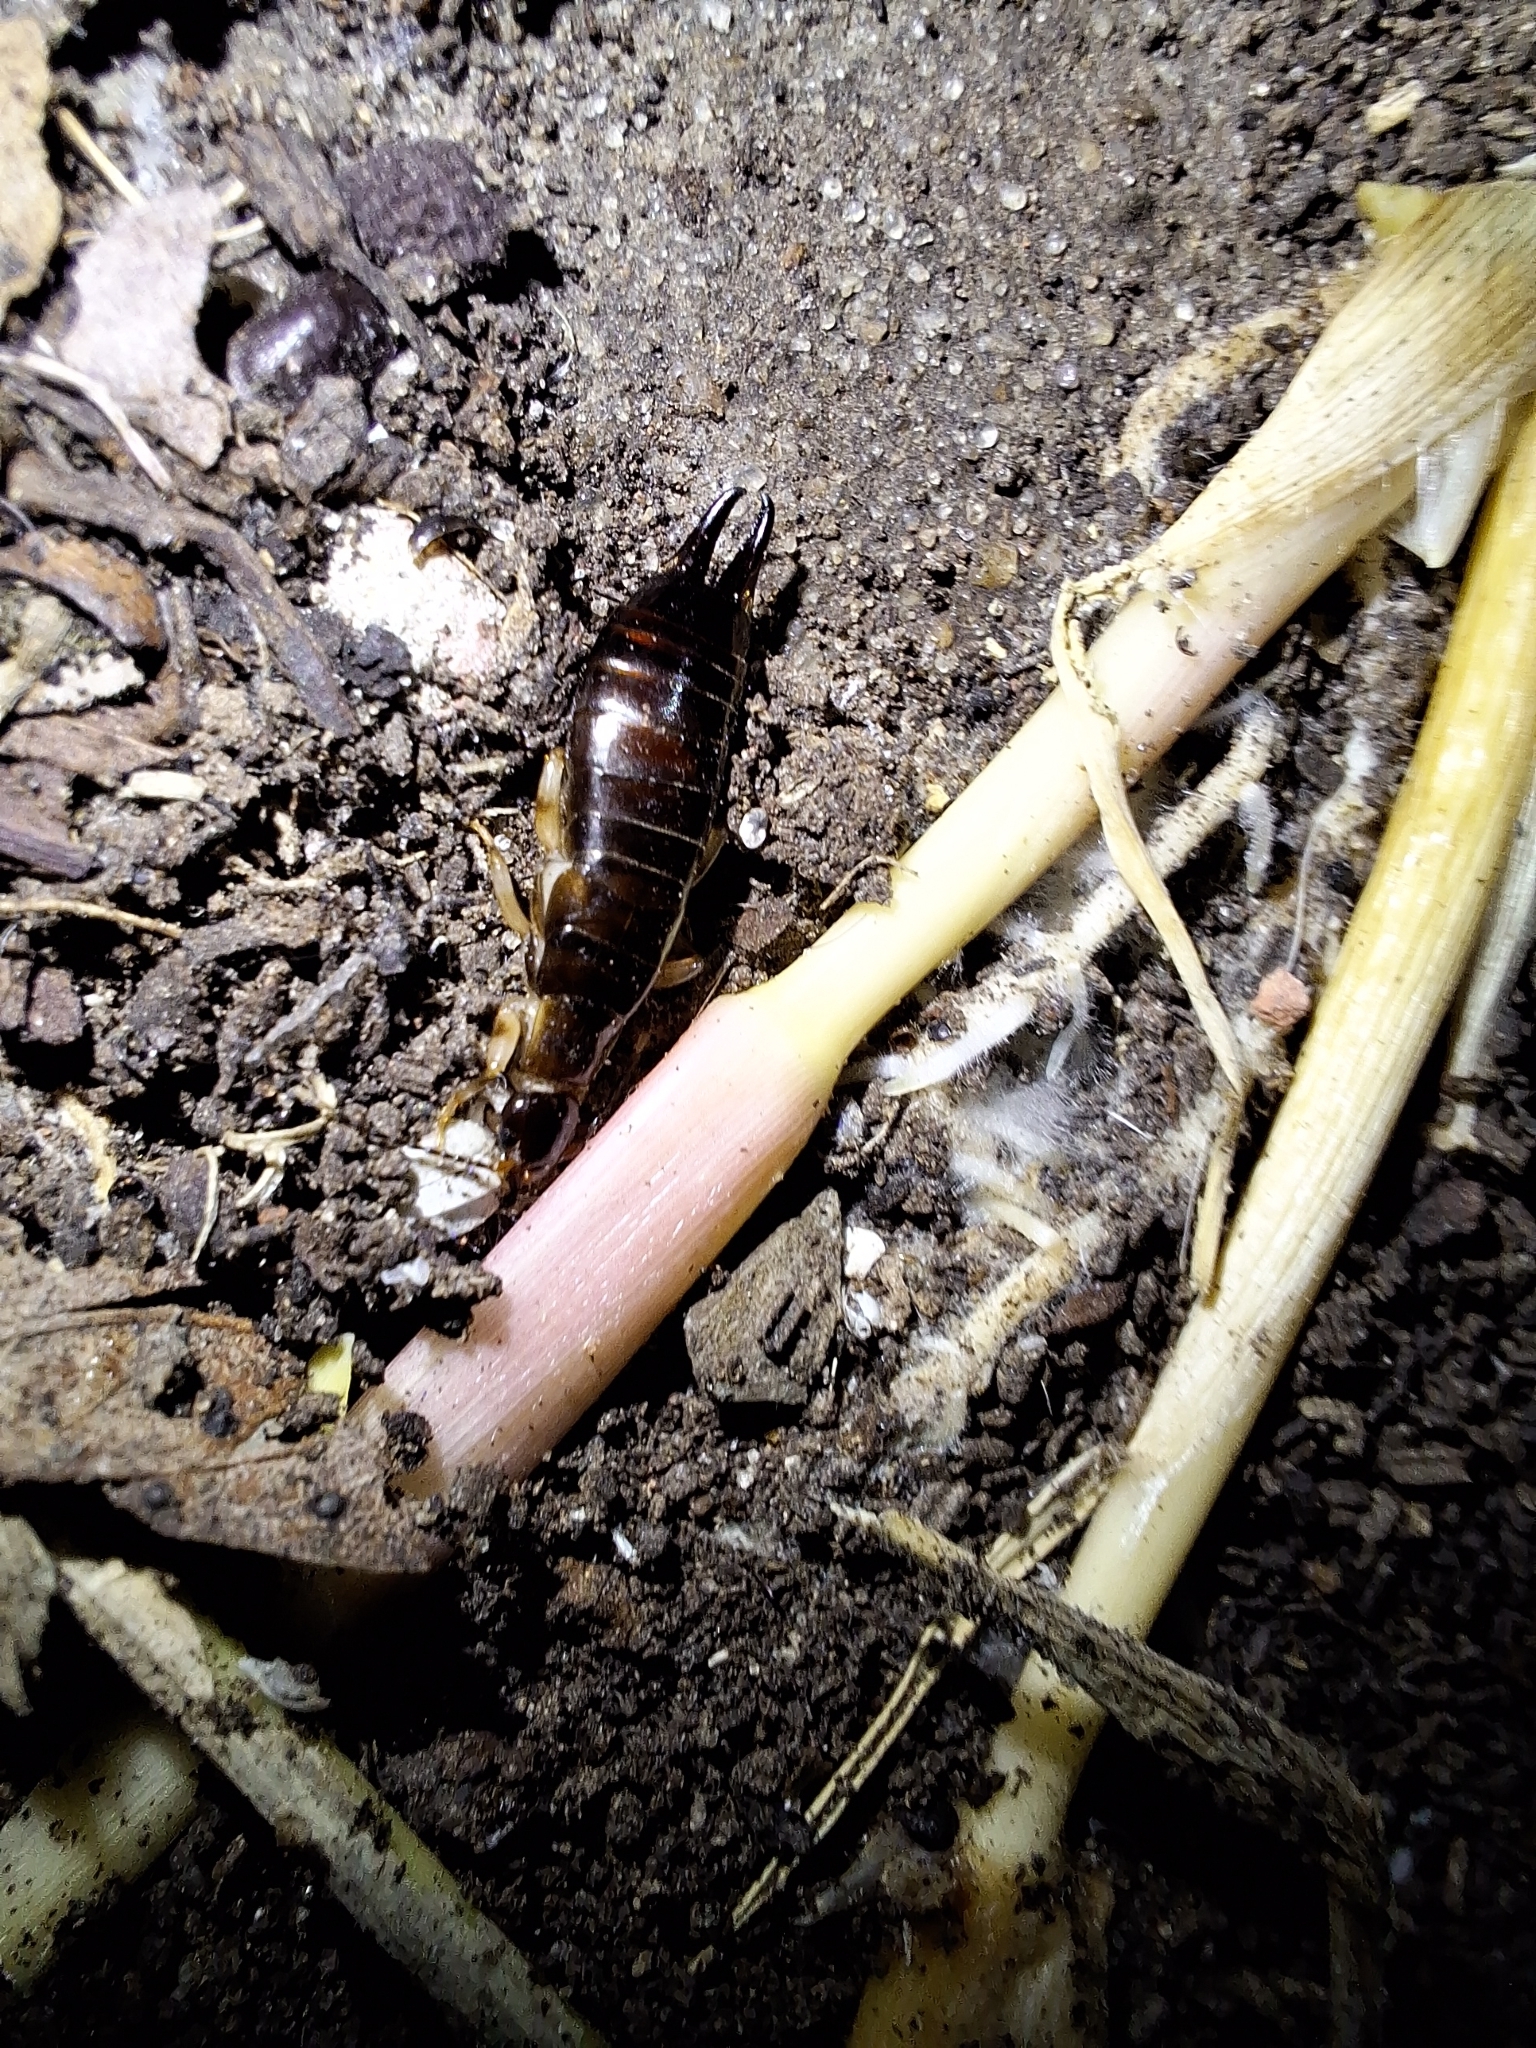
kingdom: Animalia
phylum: Arthropoda
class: Insecta
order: Dermaptera
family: Anisolabididae
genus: Euborellia
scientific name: Euborellia annulipes
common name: Ringlegged earwig
